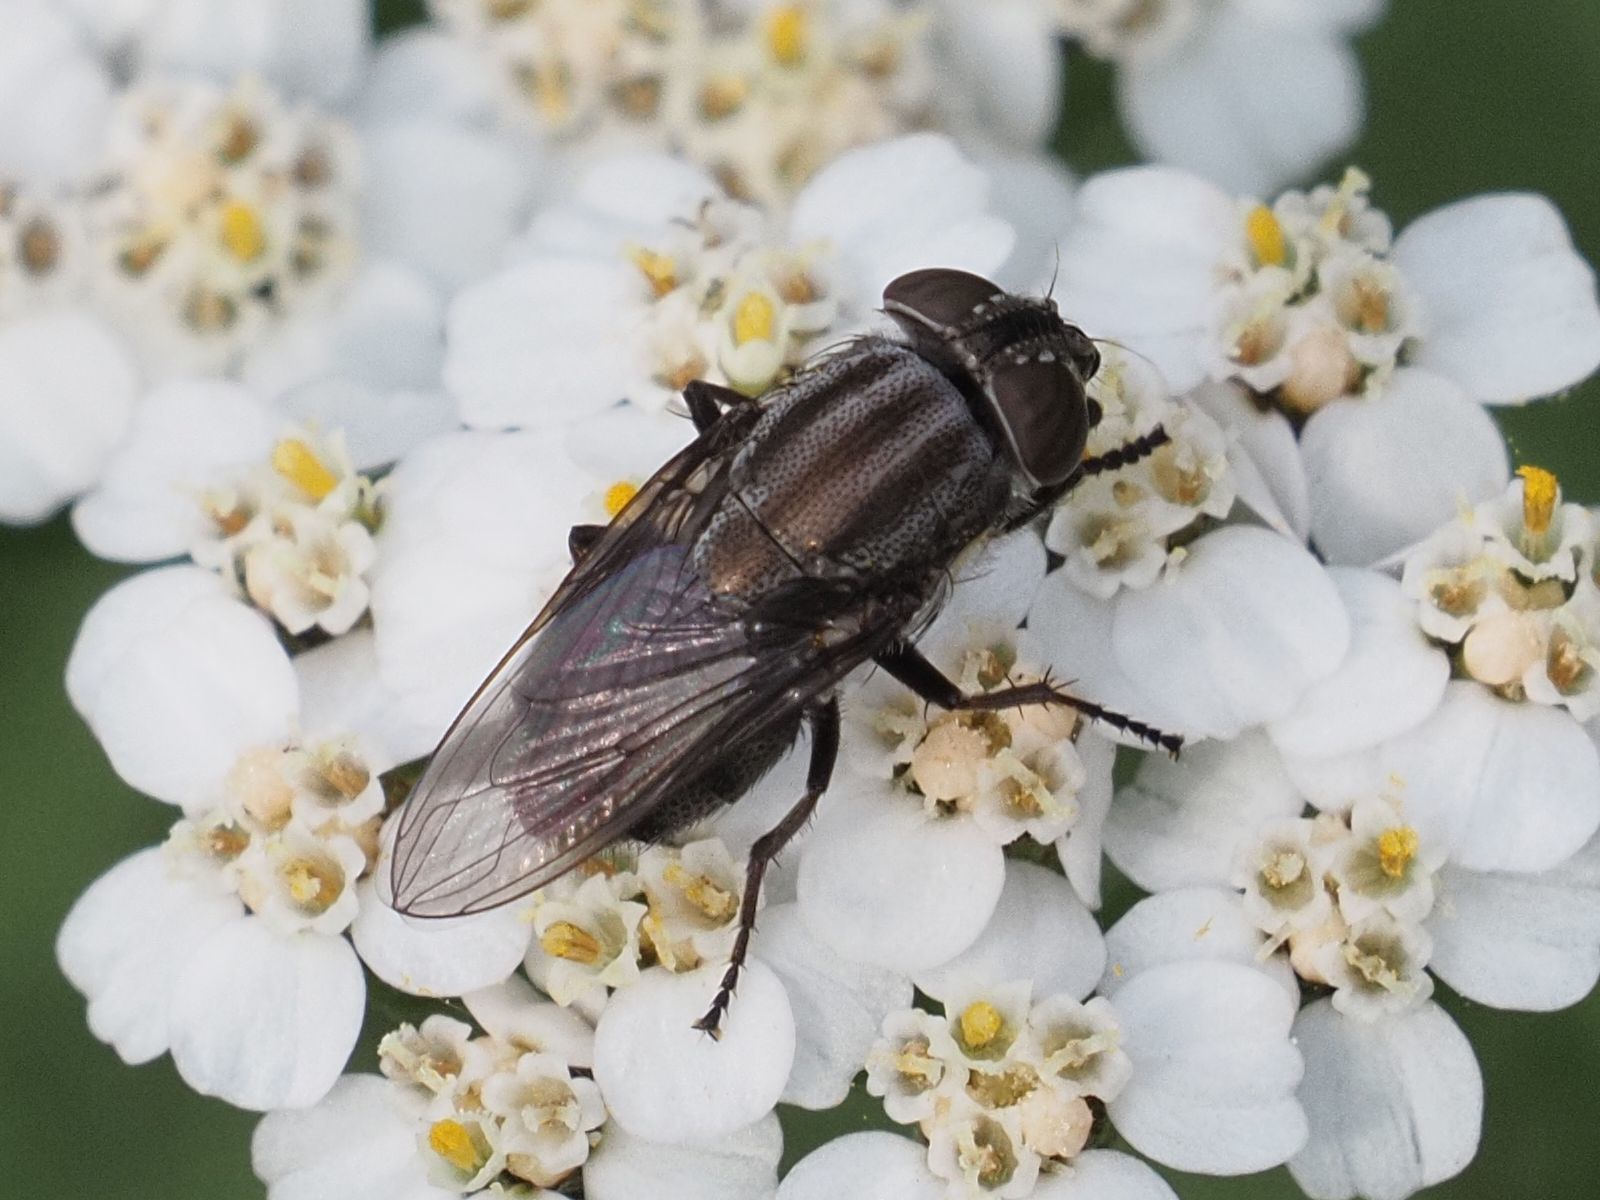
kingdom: Animalia
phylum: Arthropoda
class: Insecta
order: Diptera
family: Calliphoridae
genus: Stomorhina
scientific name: Stomorhina lunata
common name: Locust blowfly
